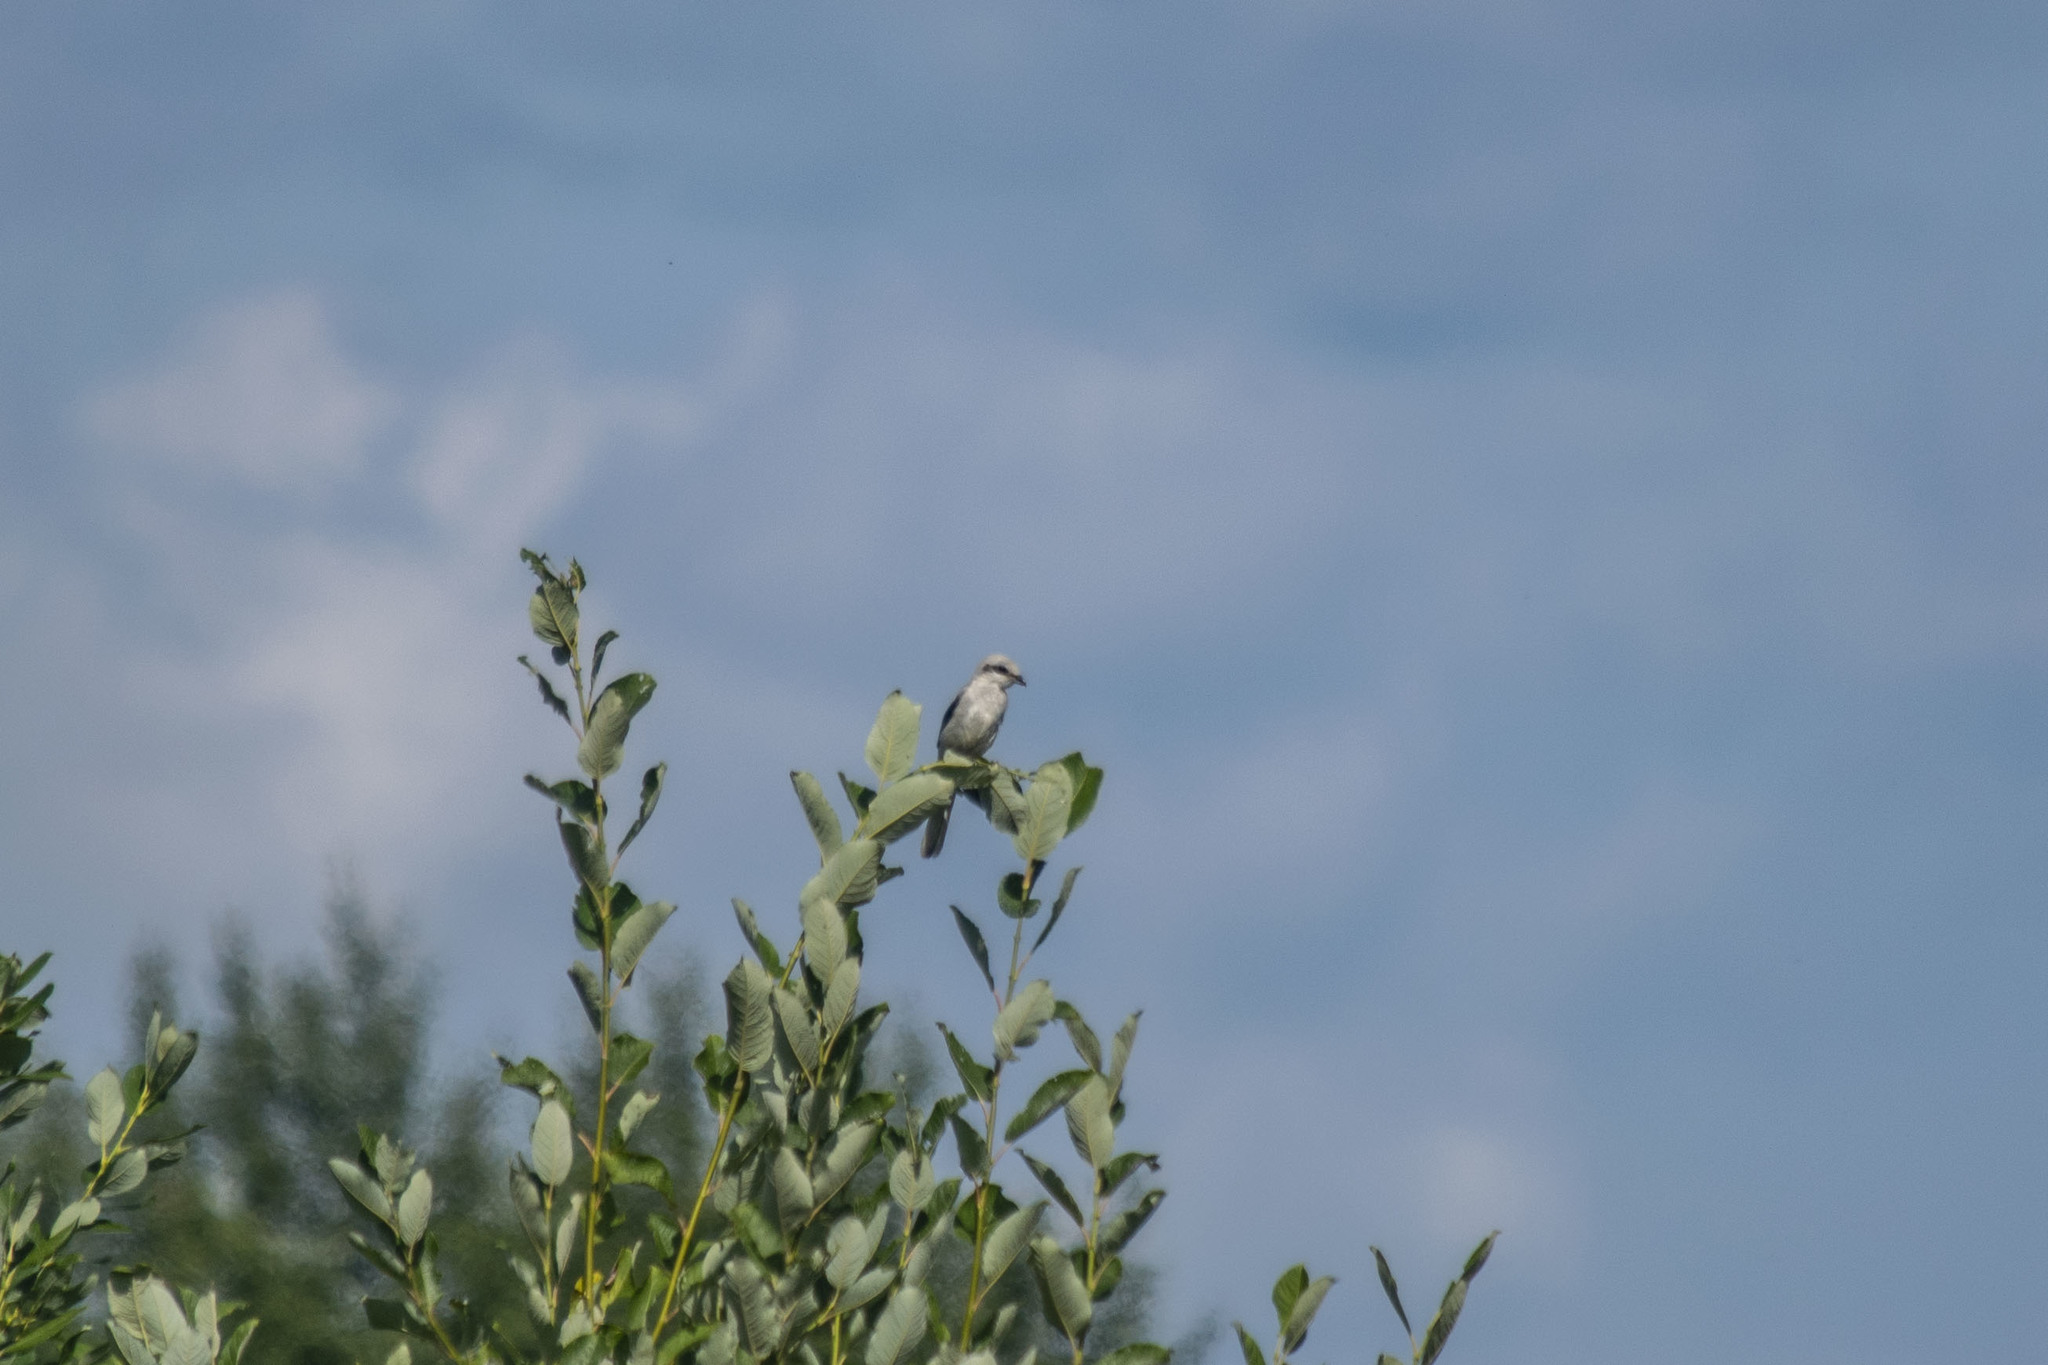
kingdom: Animalia
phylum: Chordata
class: Aves
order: Passeriformes
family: Laniidae
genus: Lanius
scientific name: Lanius excubitor
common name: Great grey shrike
